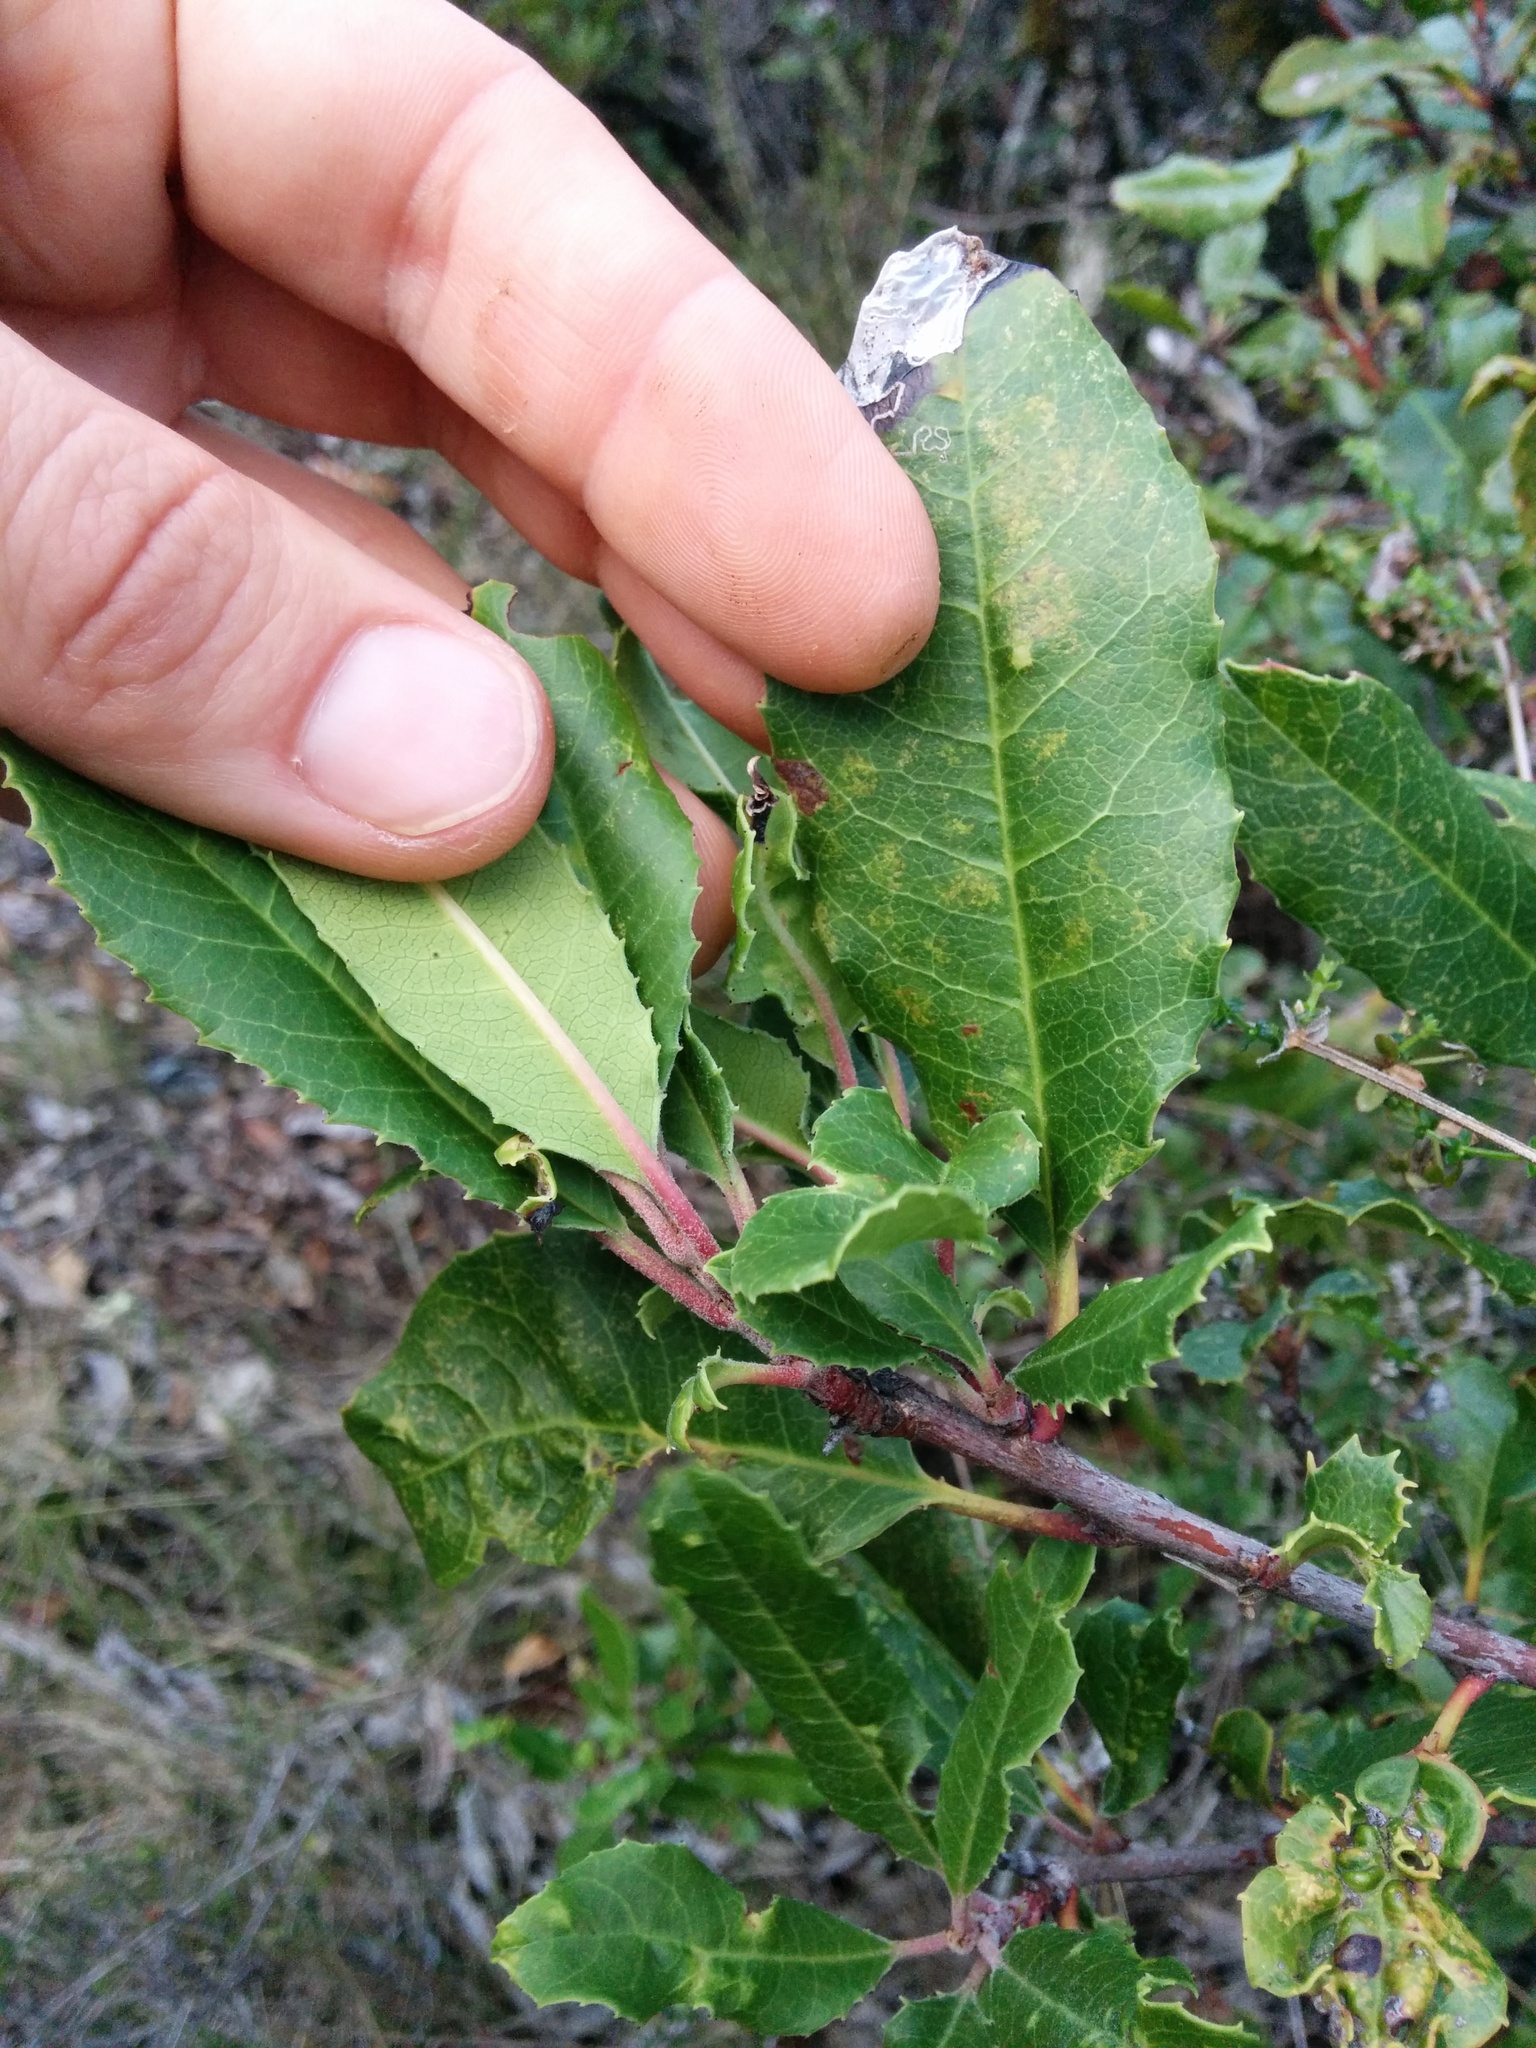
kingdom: Plantae
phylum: Tracheophyta
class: Magnoliopsida
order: Rosales
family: Rosaceae
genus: Heteromeles
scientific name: Heteromeles arbutifolia
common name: California-holly
